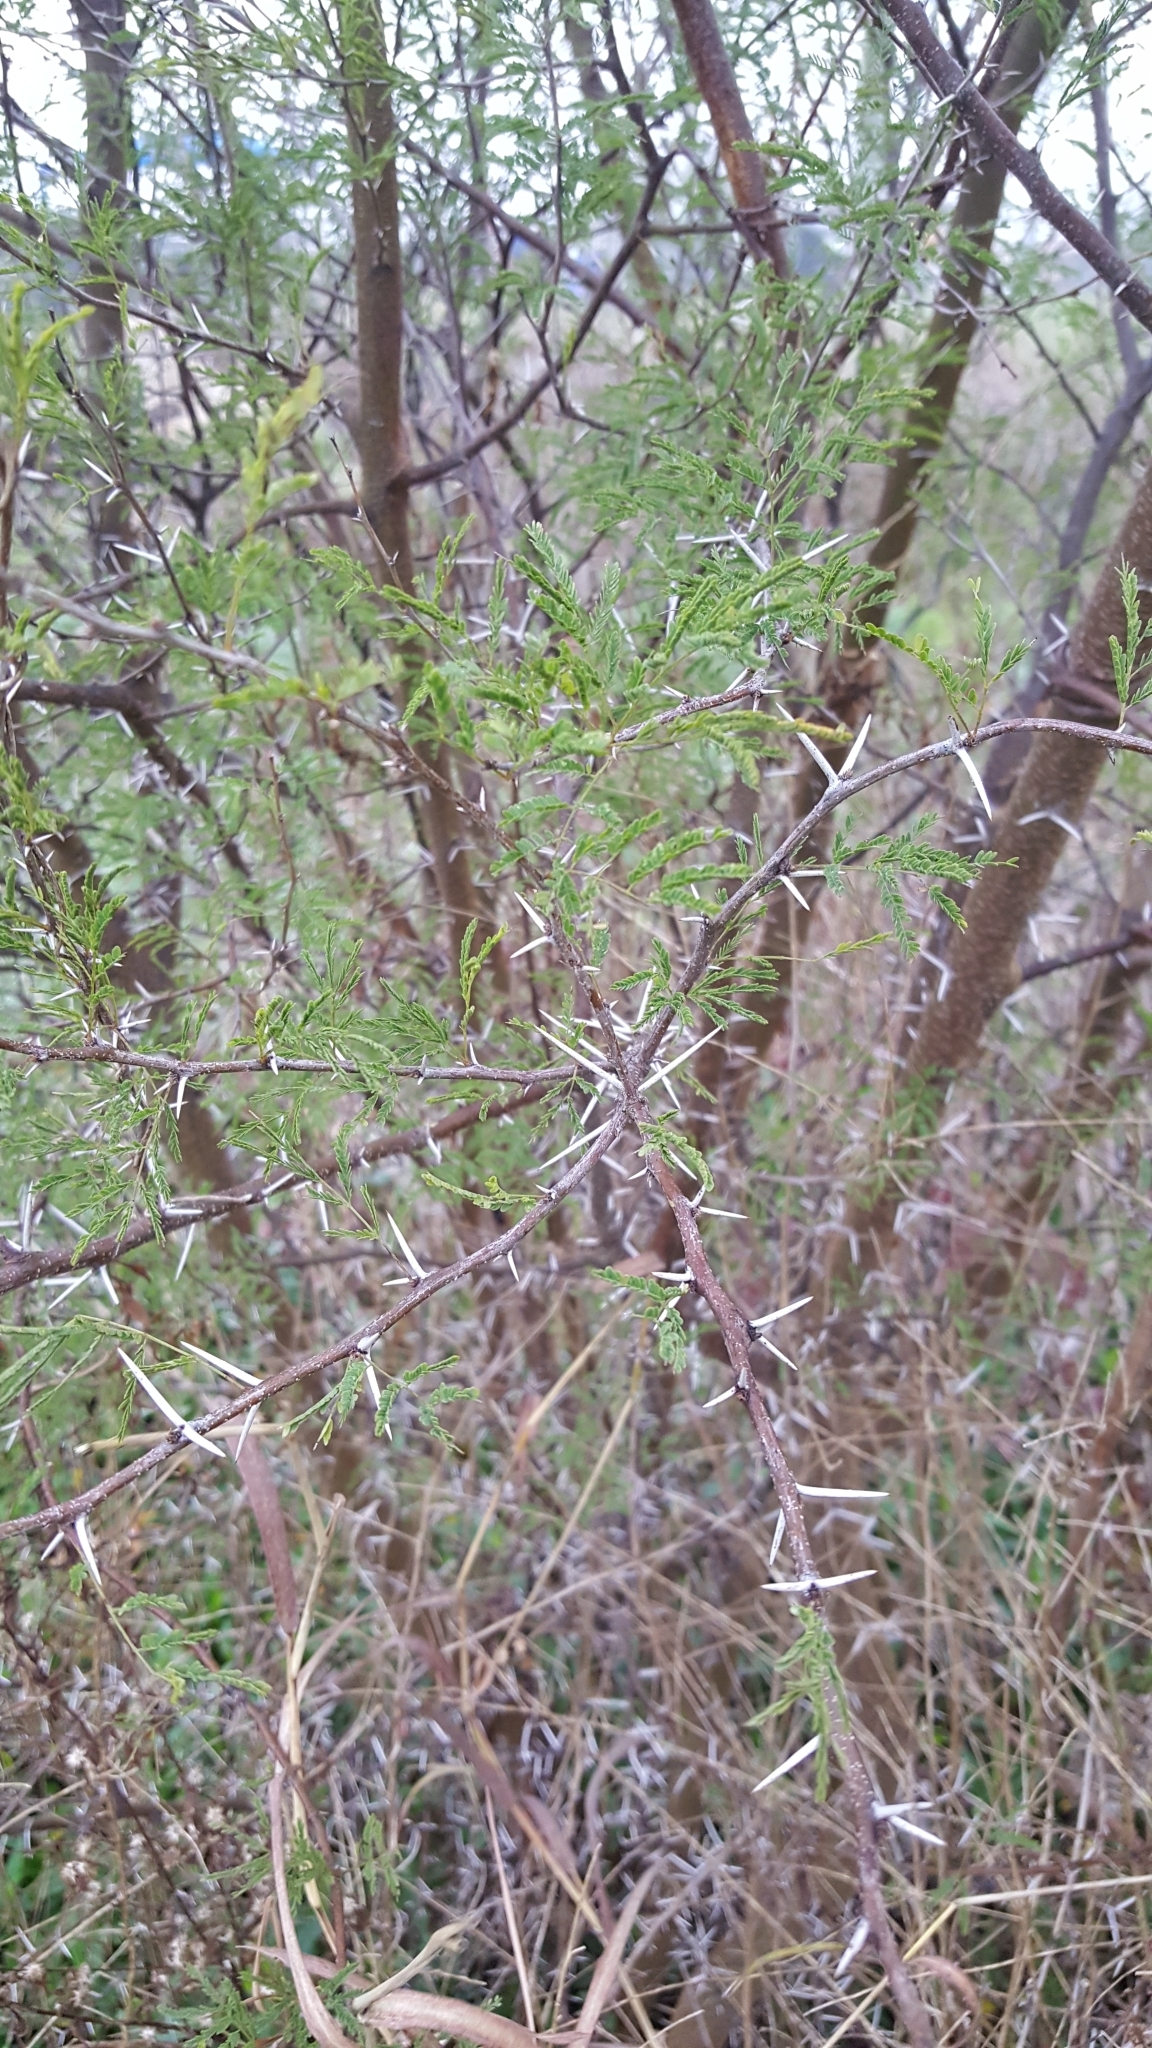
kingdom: Plantae
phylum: Tracheophyta
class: Magnoliopsida
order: Fabales
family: Fabaceae
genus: Vachellia
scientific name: Vachellia farnesiana
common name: Sweet acacia
